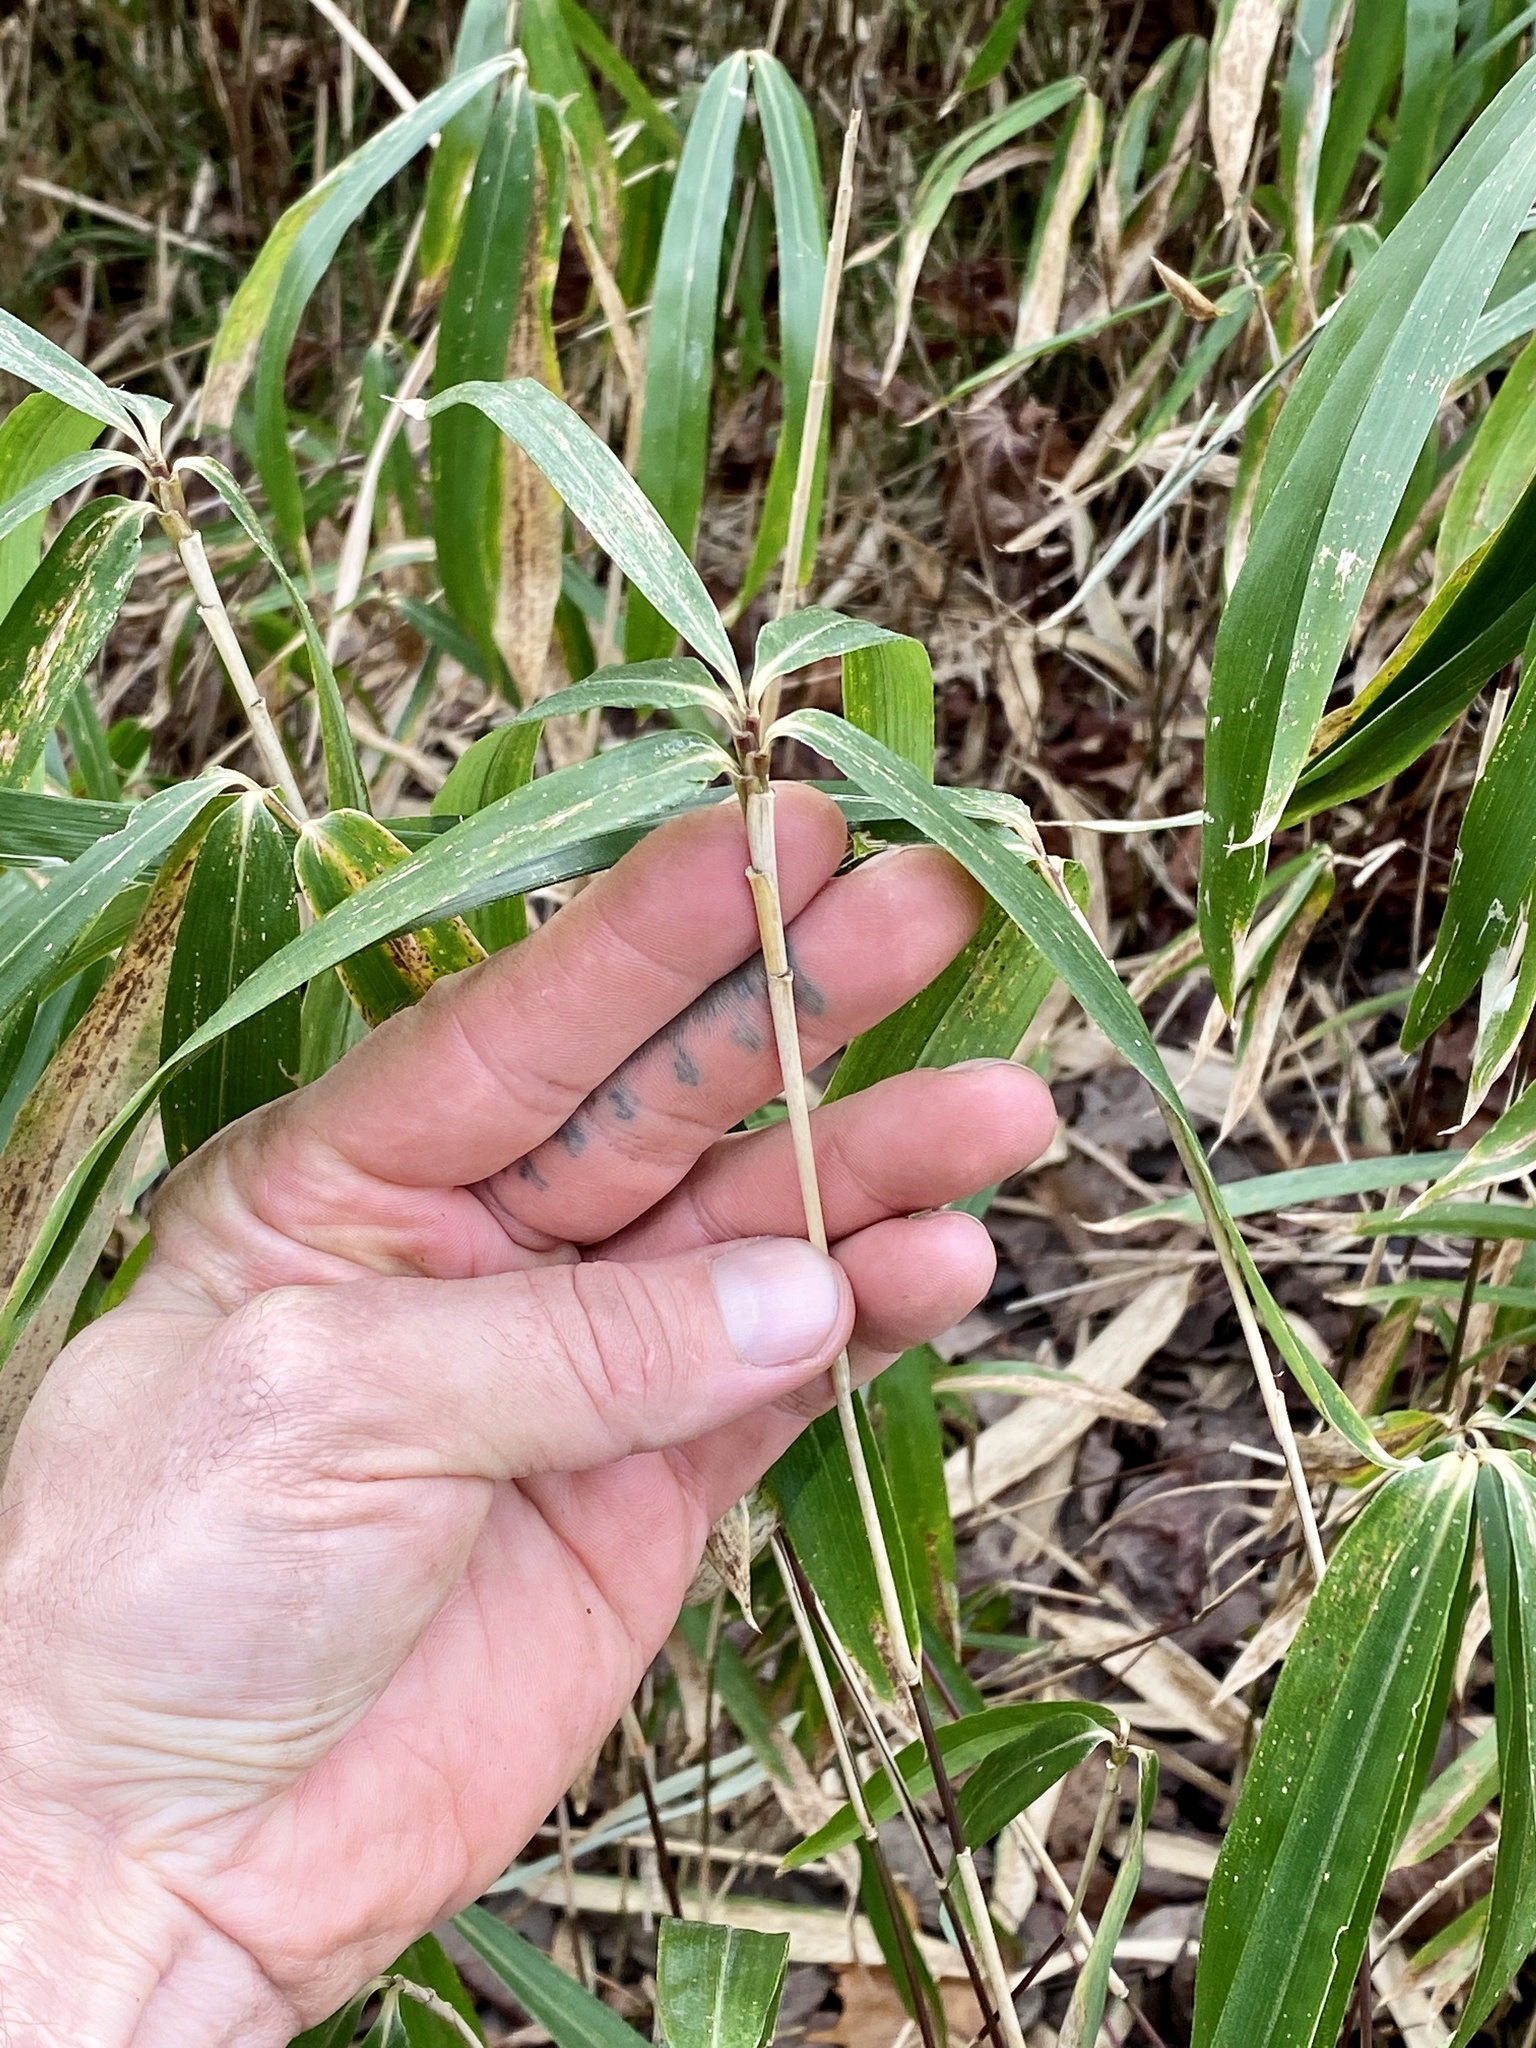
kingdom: Plantae
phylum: Tracheophyta
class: Liliopsida
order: Poales
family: Poaceae
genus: Pleioblastus
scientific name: Pleioblastus variegatus
